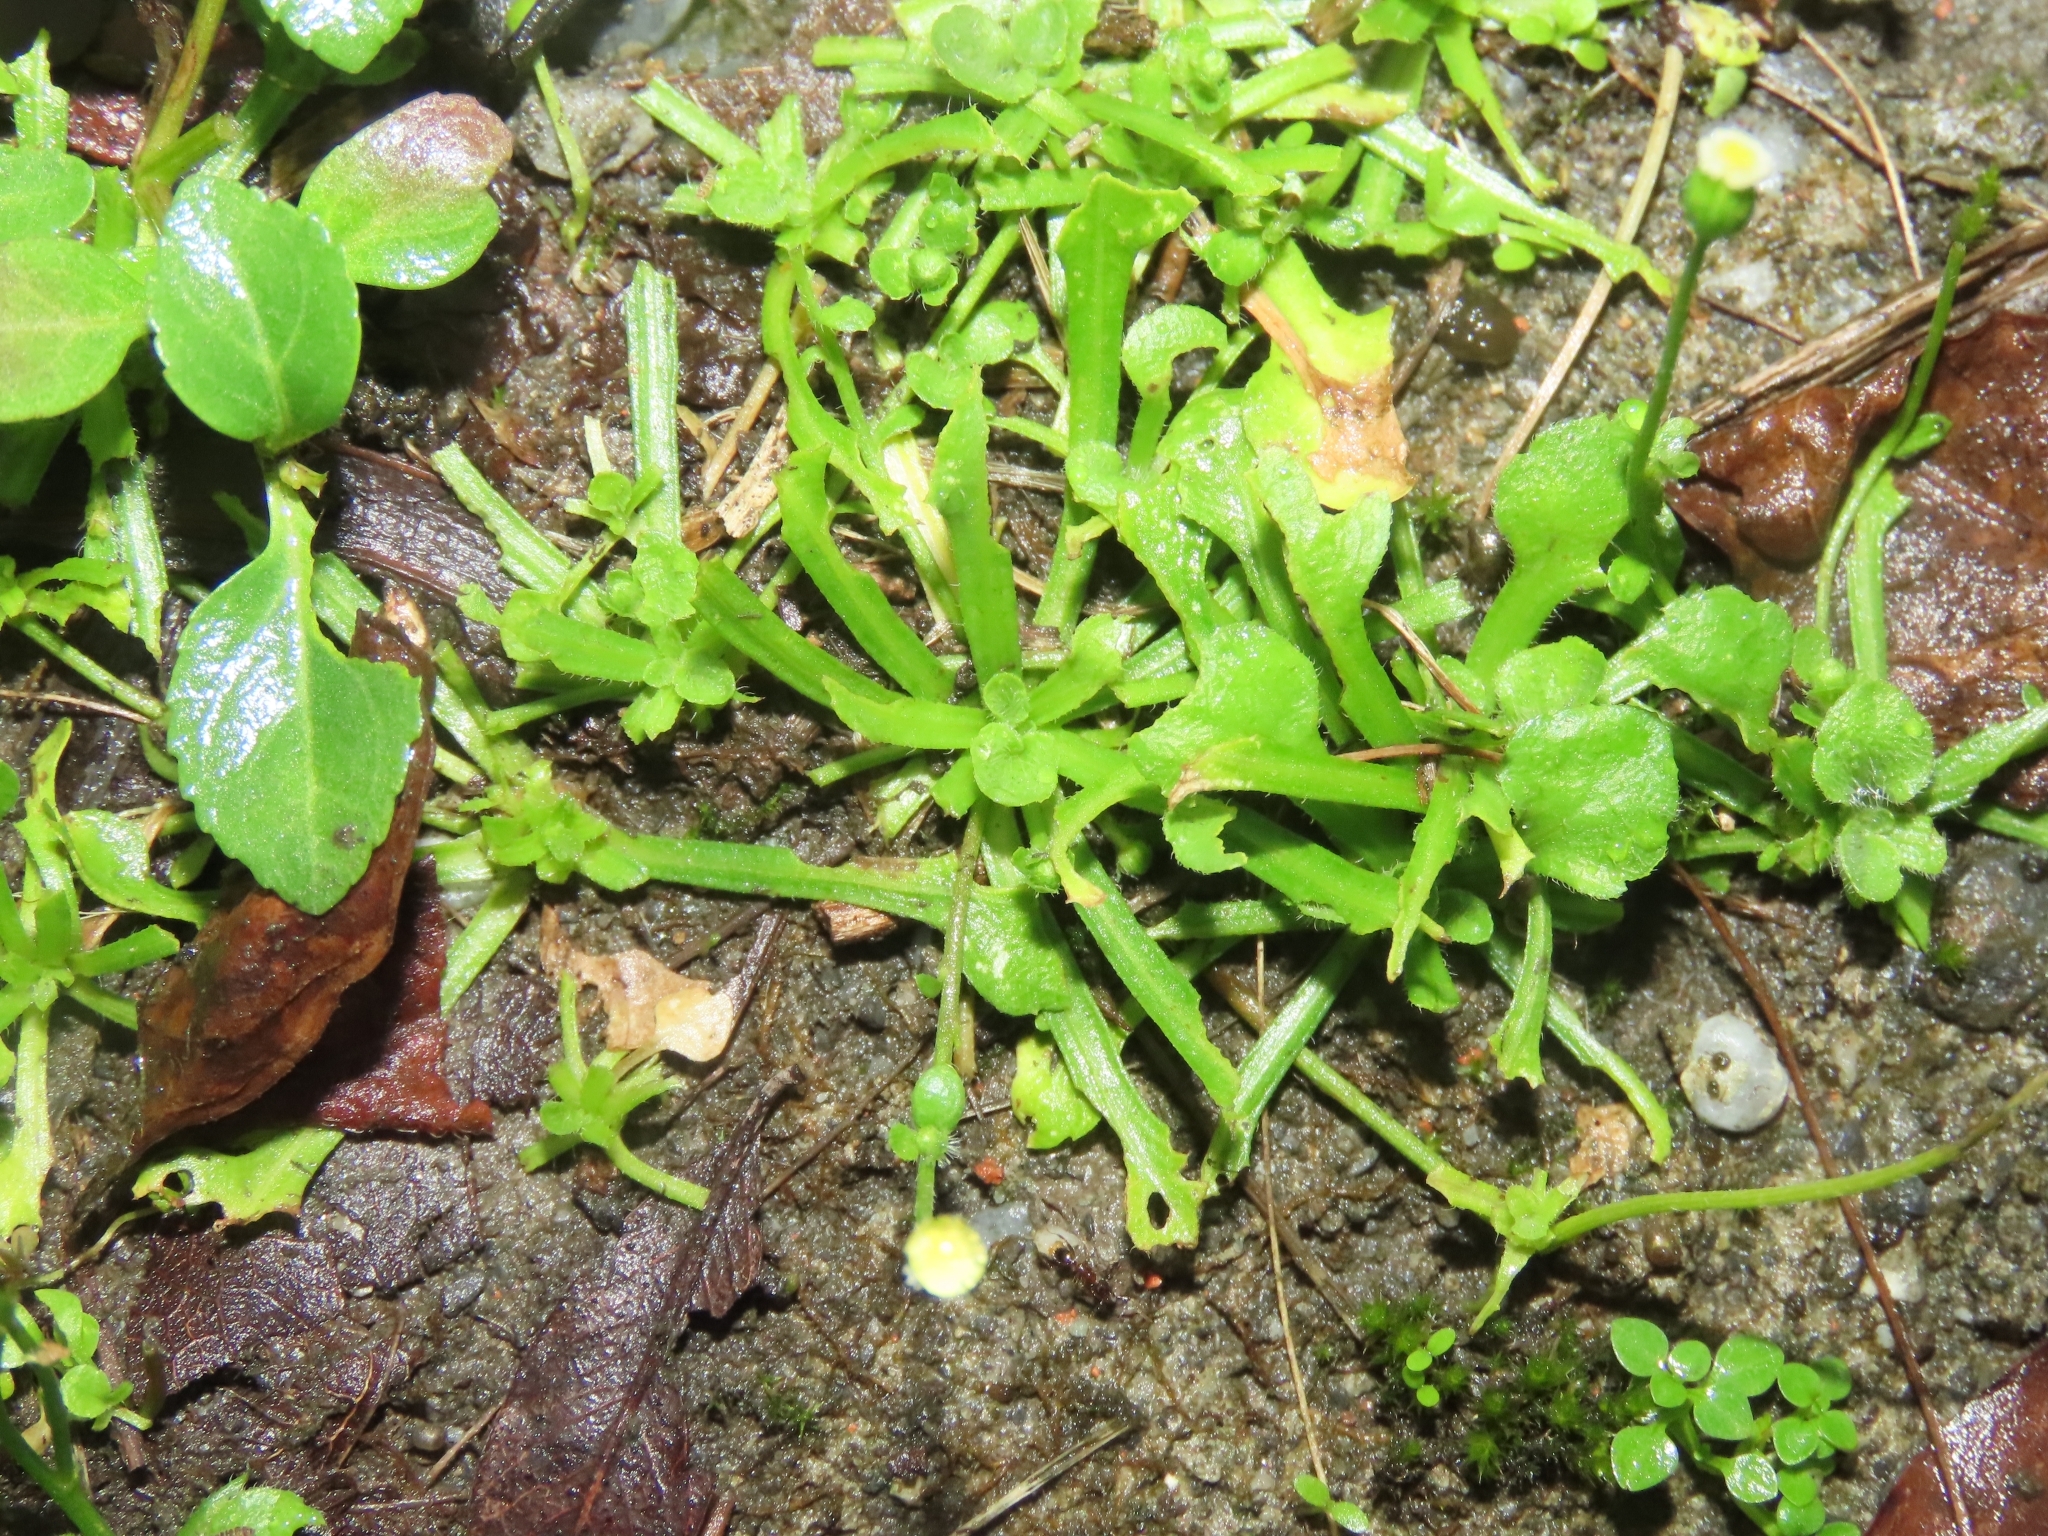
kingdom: Plantae
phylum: Tracheophyta
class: Magnoliopsida
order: Asterales
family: Asteraceae
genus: Erigeron
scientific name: Erigeron bellioides
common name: Bellorita
